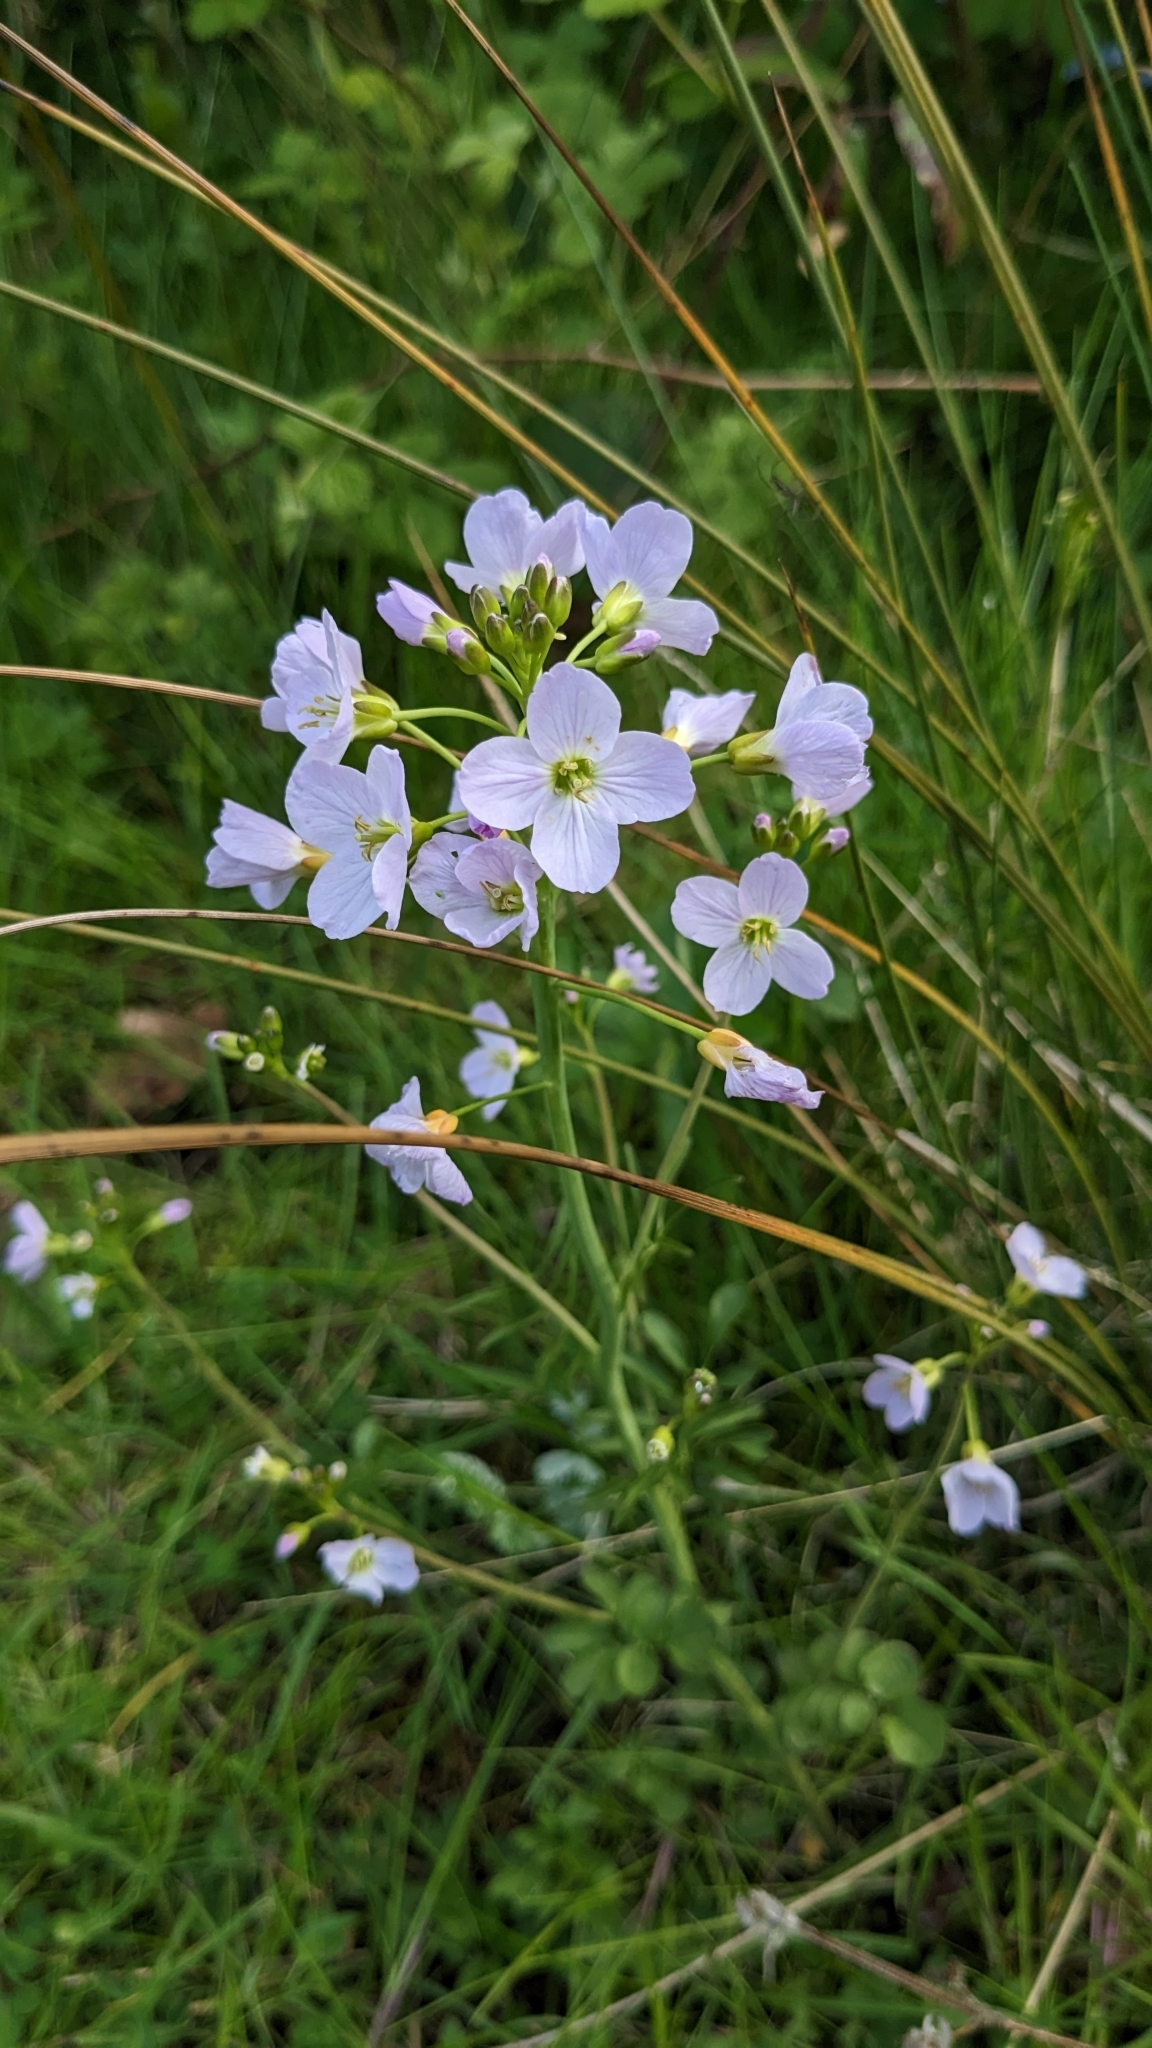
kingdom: Plantae
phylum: Tracheophyta
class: Magnoliopsida
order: Brassicales
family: Brassicaceae
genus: Cardamine
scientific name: Cardamine pratensis
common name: Cuckoo flower
